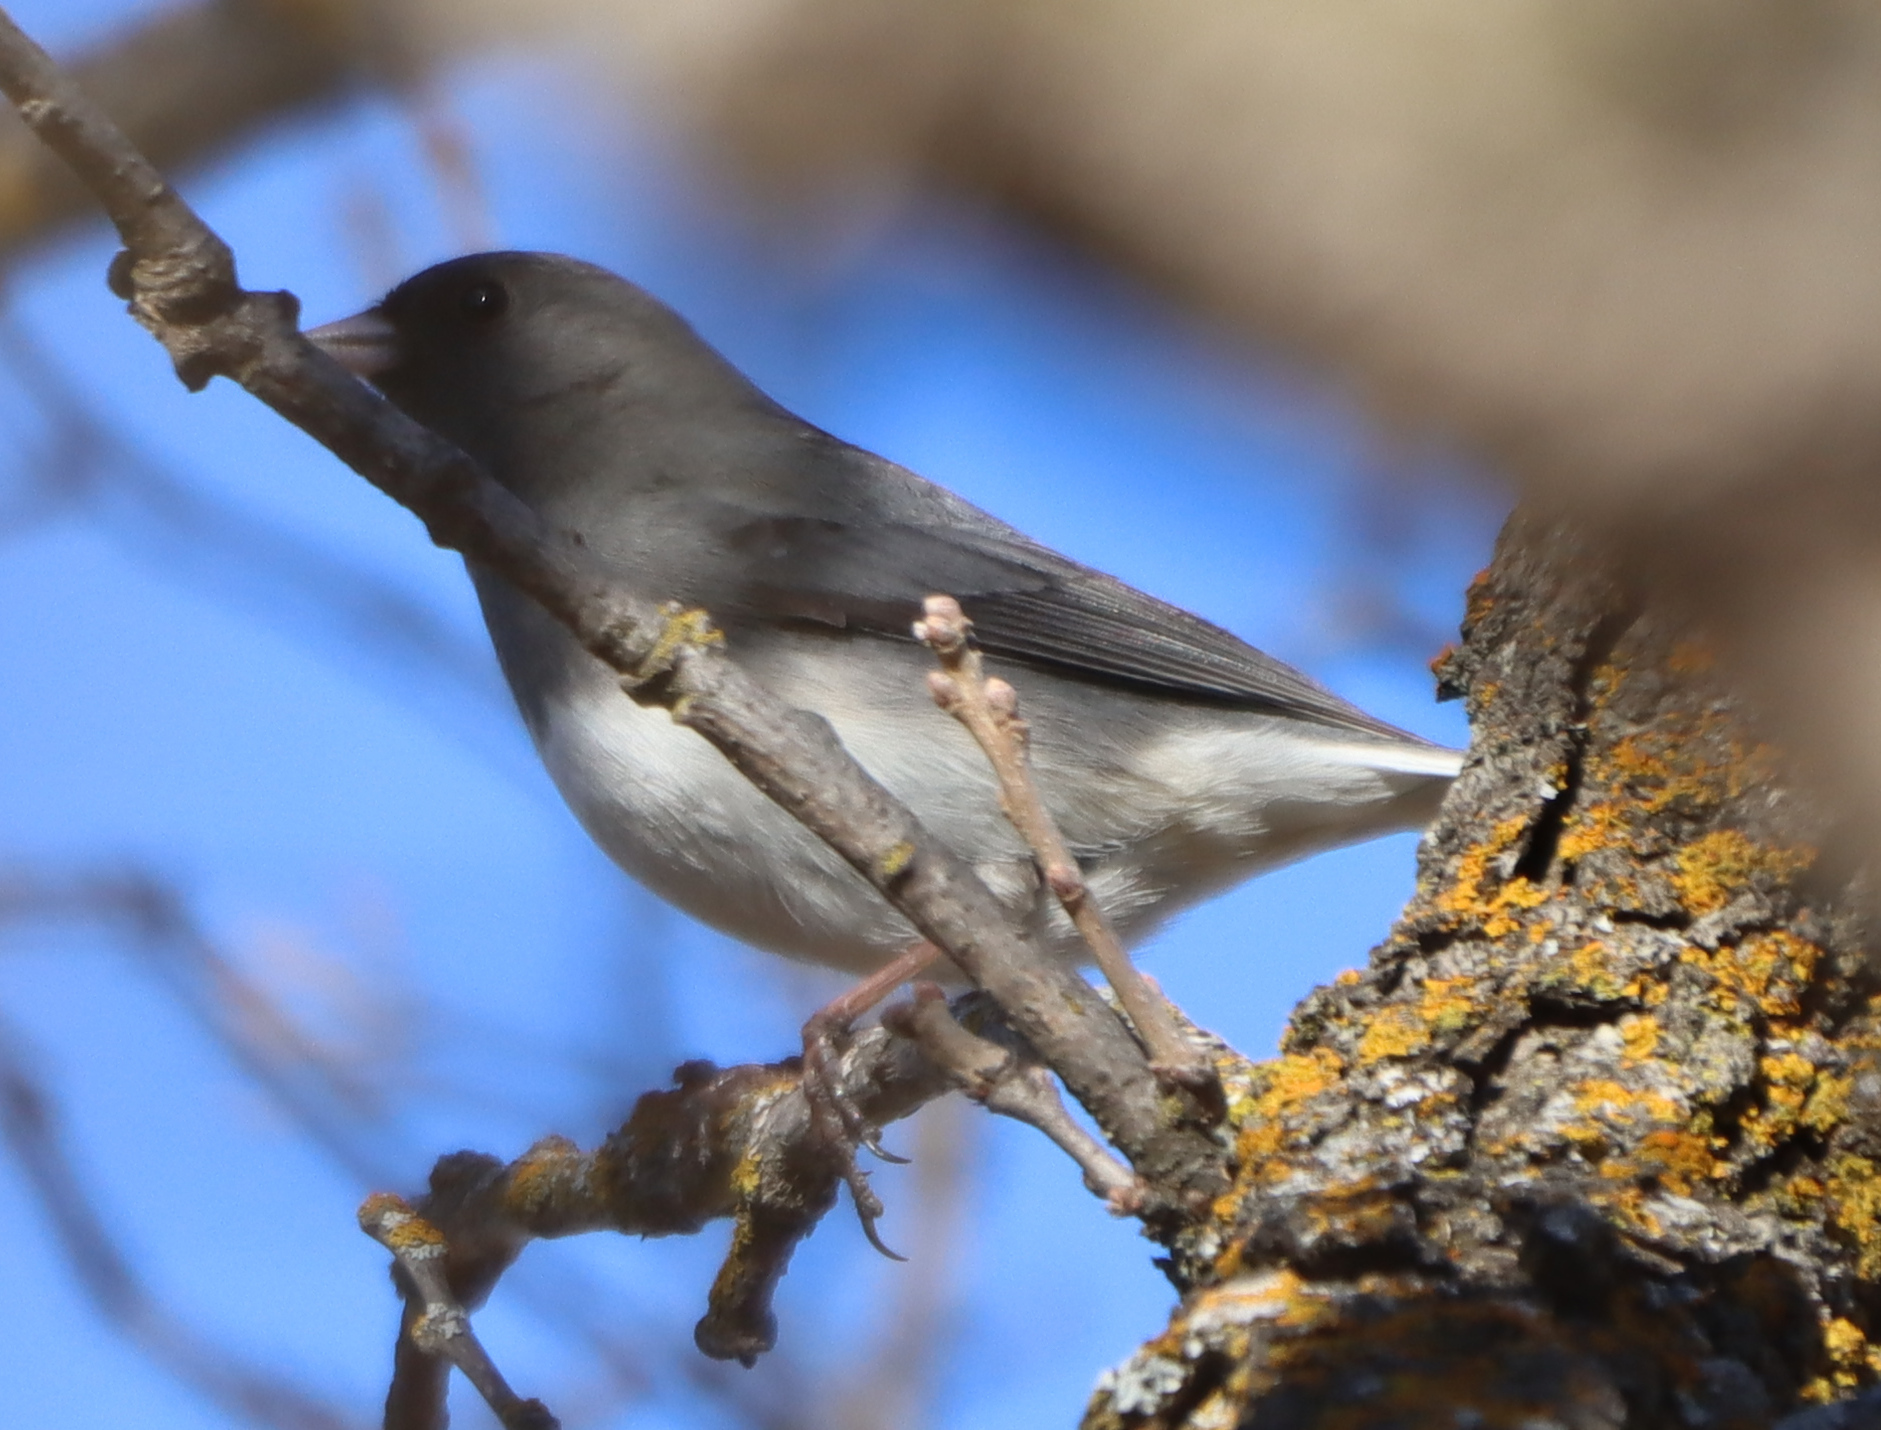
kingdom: Animalia
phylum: Chordata
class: Aves
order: Passeriformes
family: Passerellidae
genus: Junco
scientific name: Junco hyemalis
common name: Dark-eyed junco
